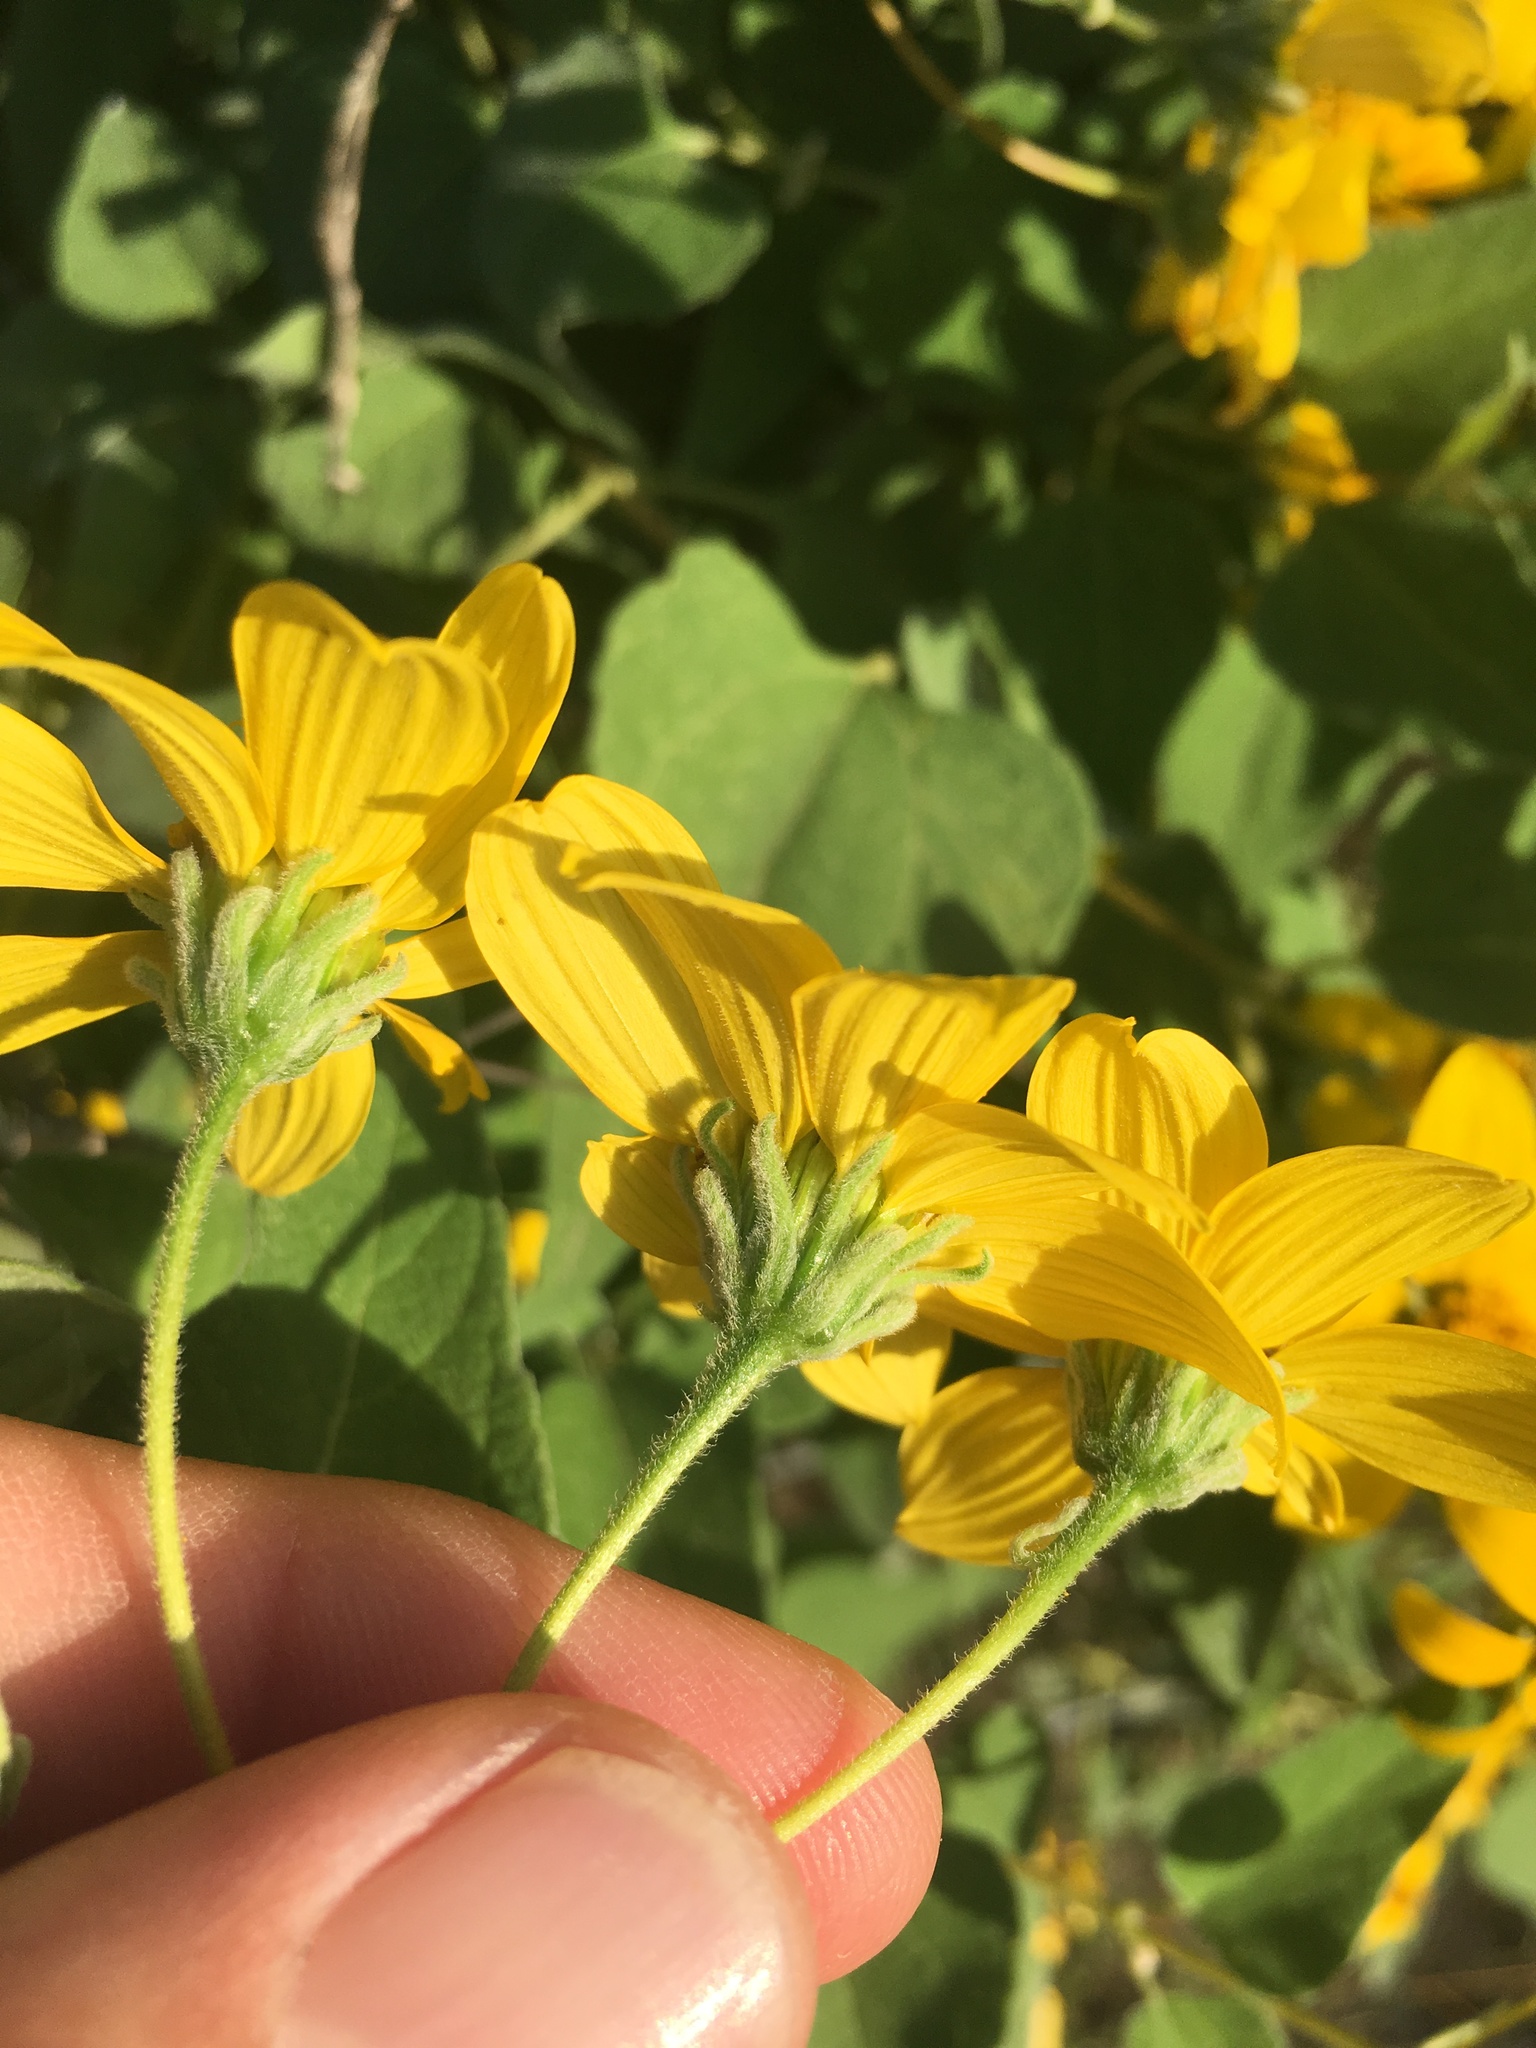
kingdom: Plantae
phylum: Tracheophyta
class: Magnoliopsida
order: Asterales
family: Asteraceae
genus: Bahiopsis
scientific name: Bahiopsis tomentosa
